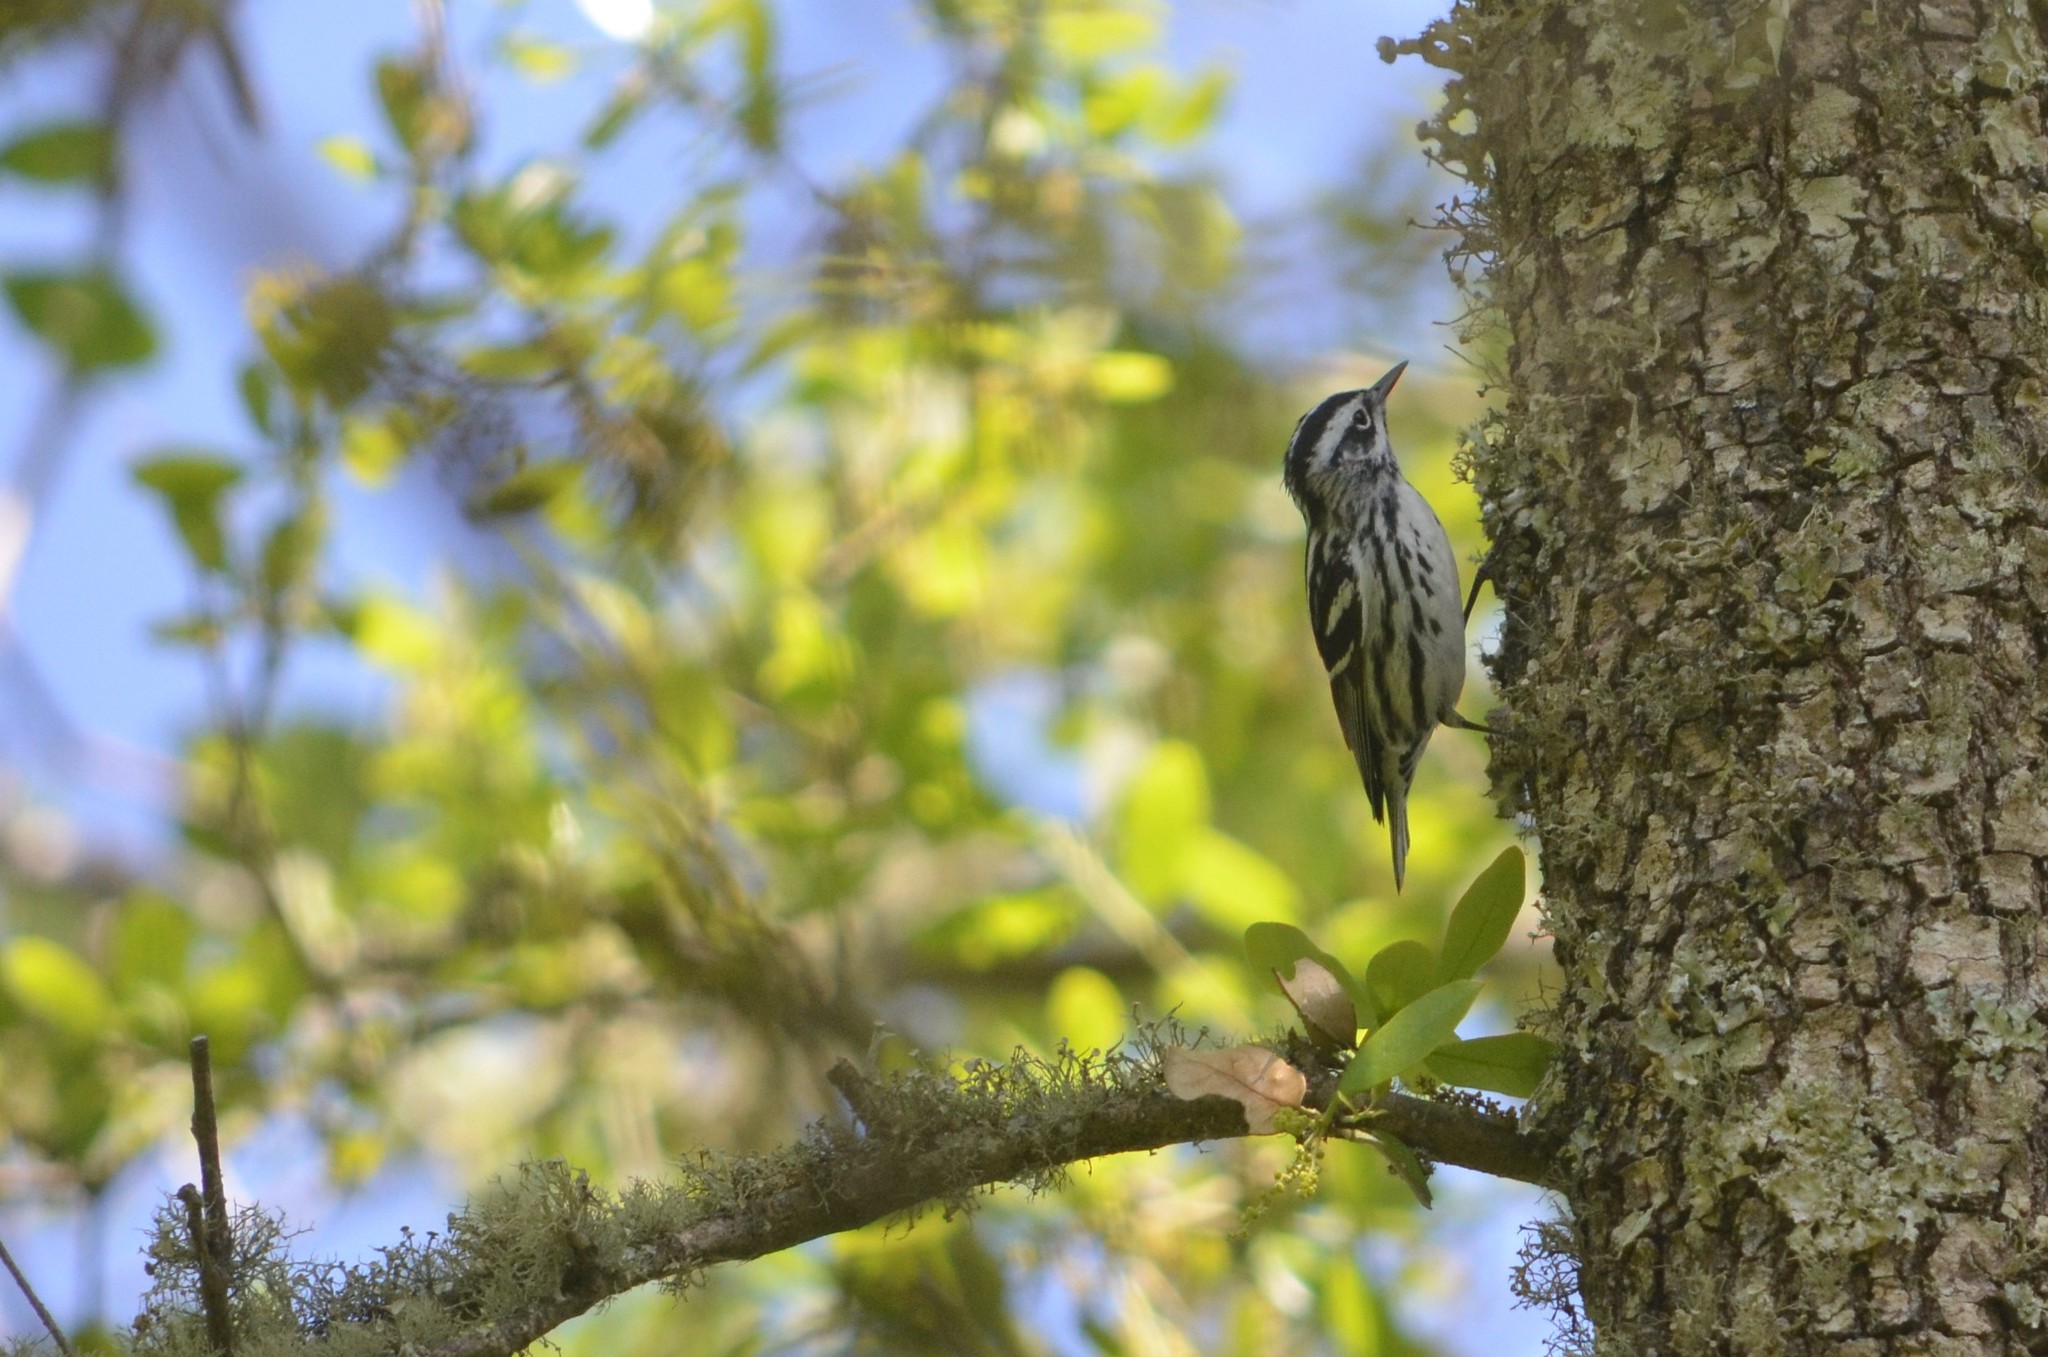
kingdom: Animalia
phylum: Chordata
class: Aves
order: Passeriformes
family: Parulidae
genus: Mniotilta
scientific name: Mniotilta varia
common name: Black-and-white warbler
